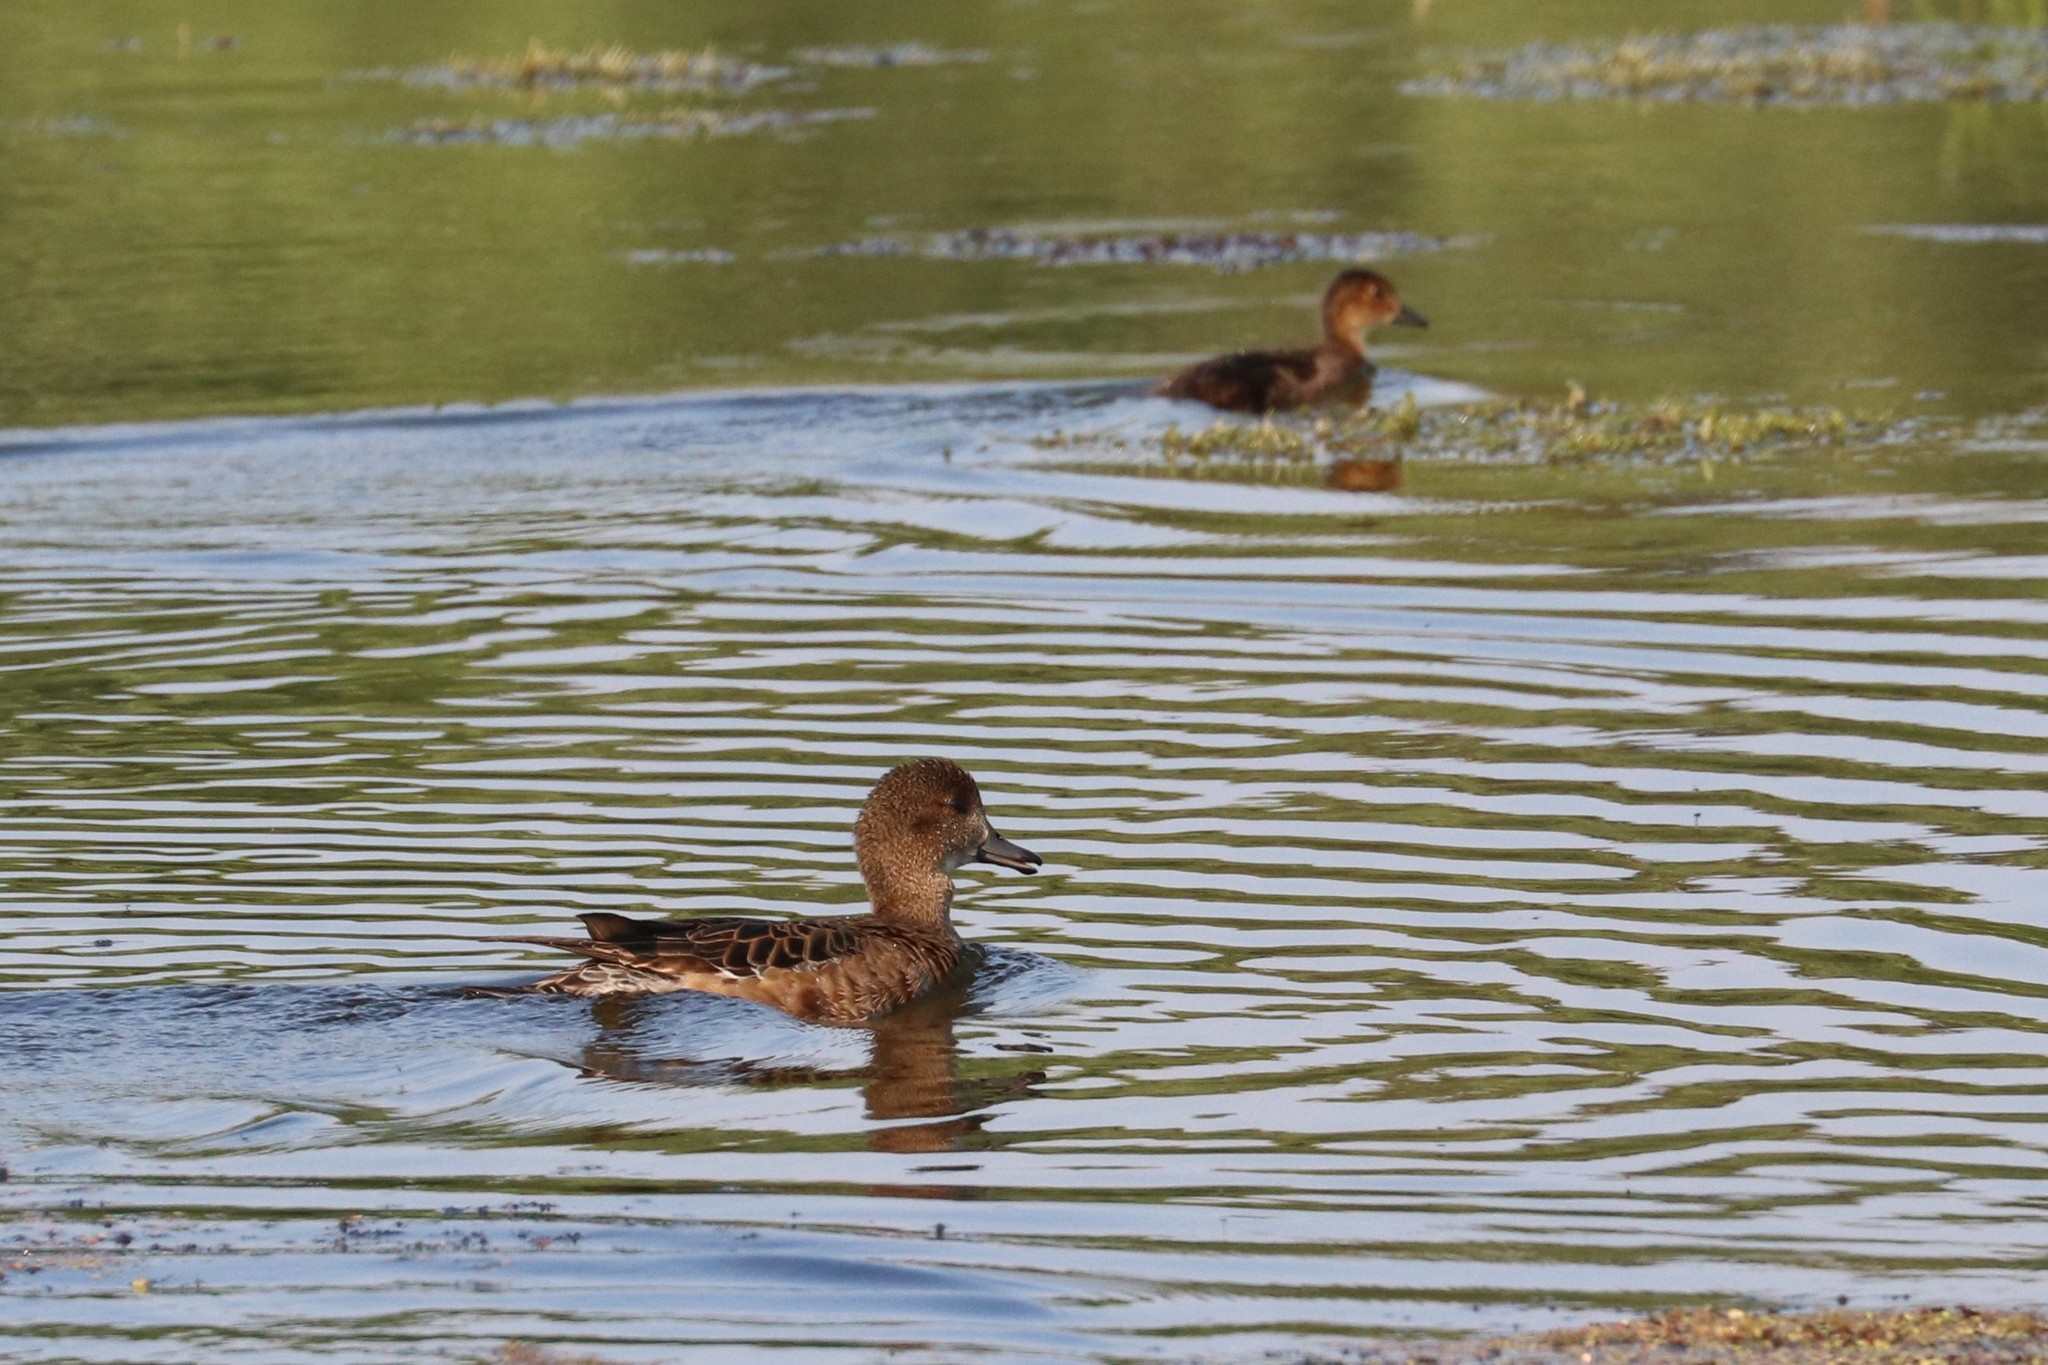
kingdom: Animalia
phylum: Chordata
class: Aves
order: Anseriformes
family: Anatidae
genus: Mareca
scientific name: Mareca penelope
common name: Eurasian wigeon
